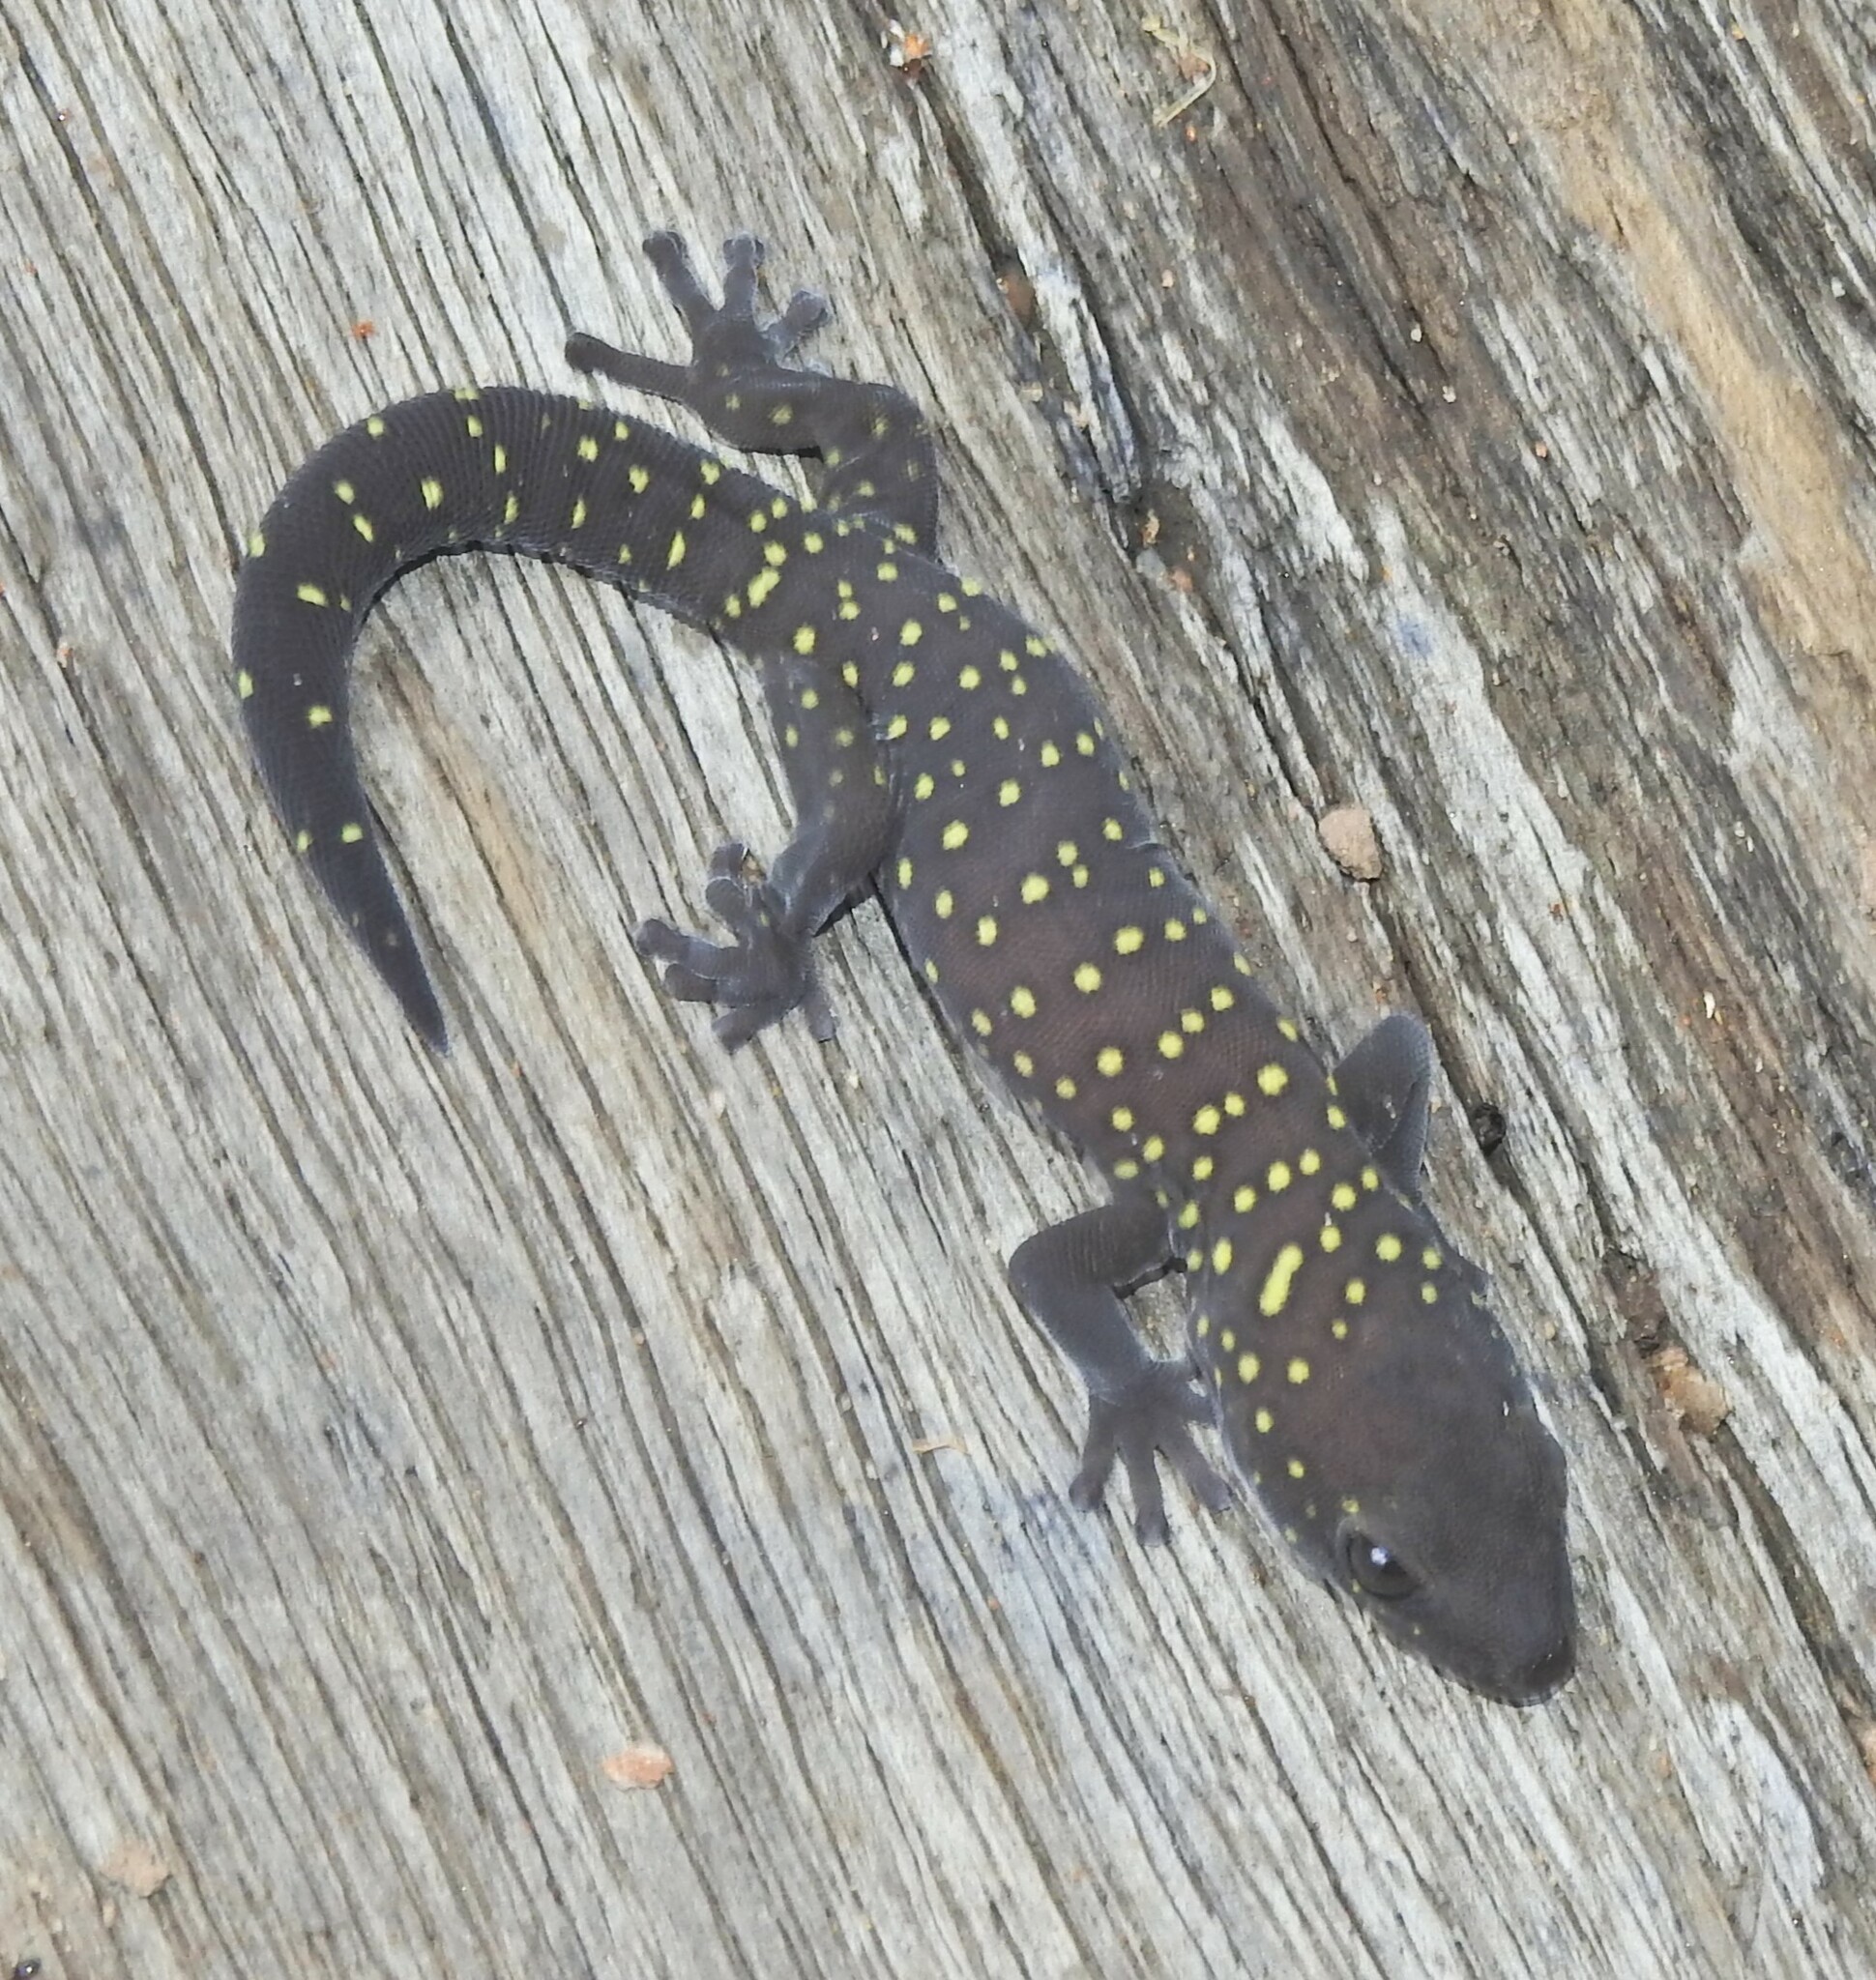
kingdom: Animalia
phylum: Chordata
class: Squamata
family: Diplodactylidae
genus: Oedura
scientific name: Oedura tryoni
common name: Southern spotted velvet gecko
